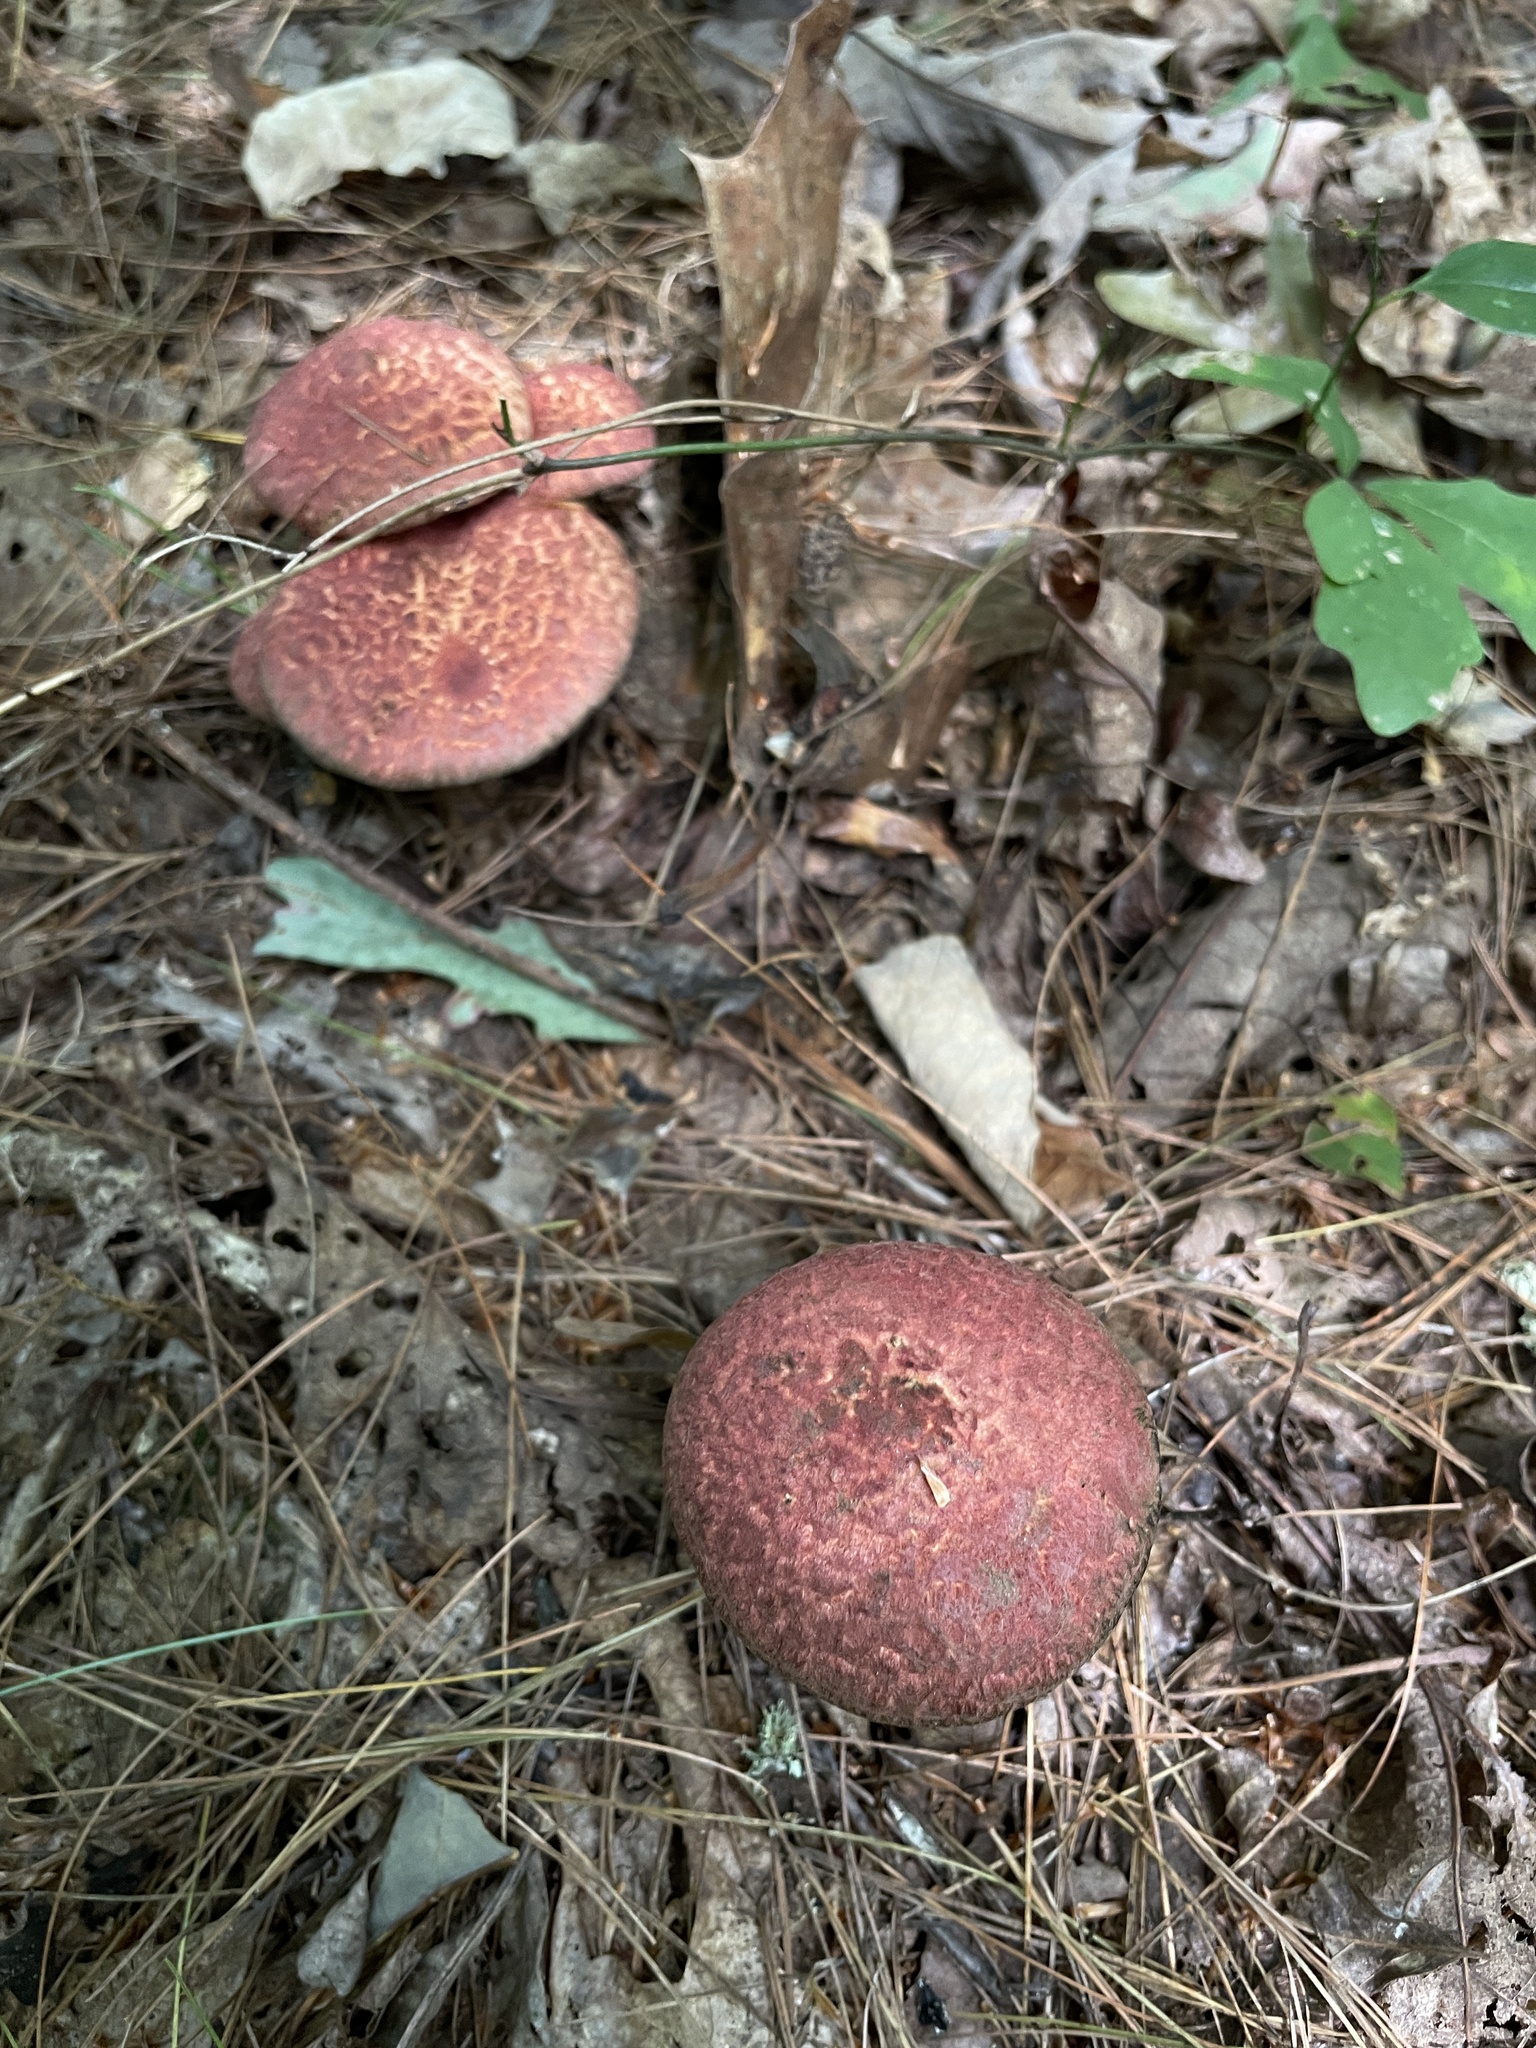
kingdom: Fungi
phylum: Basidiomycota
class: Agaricomycetes
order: Boletales
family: Suillaceae
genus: Suillus
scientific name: Suillus spraguei
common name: Painted suillus
